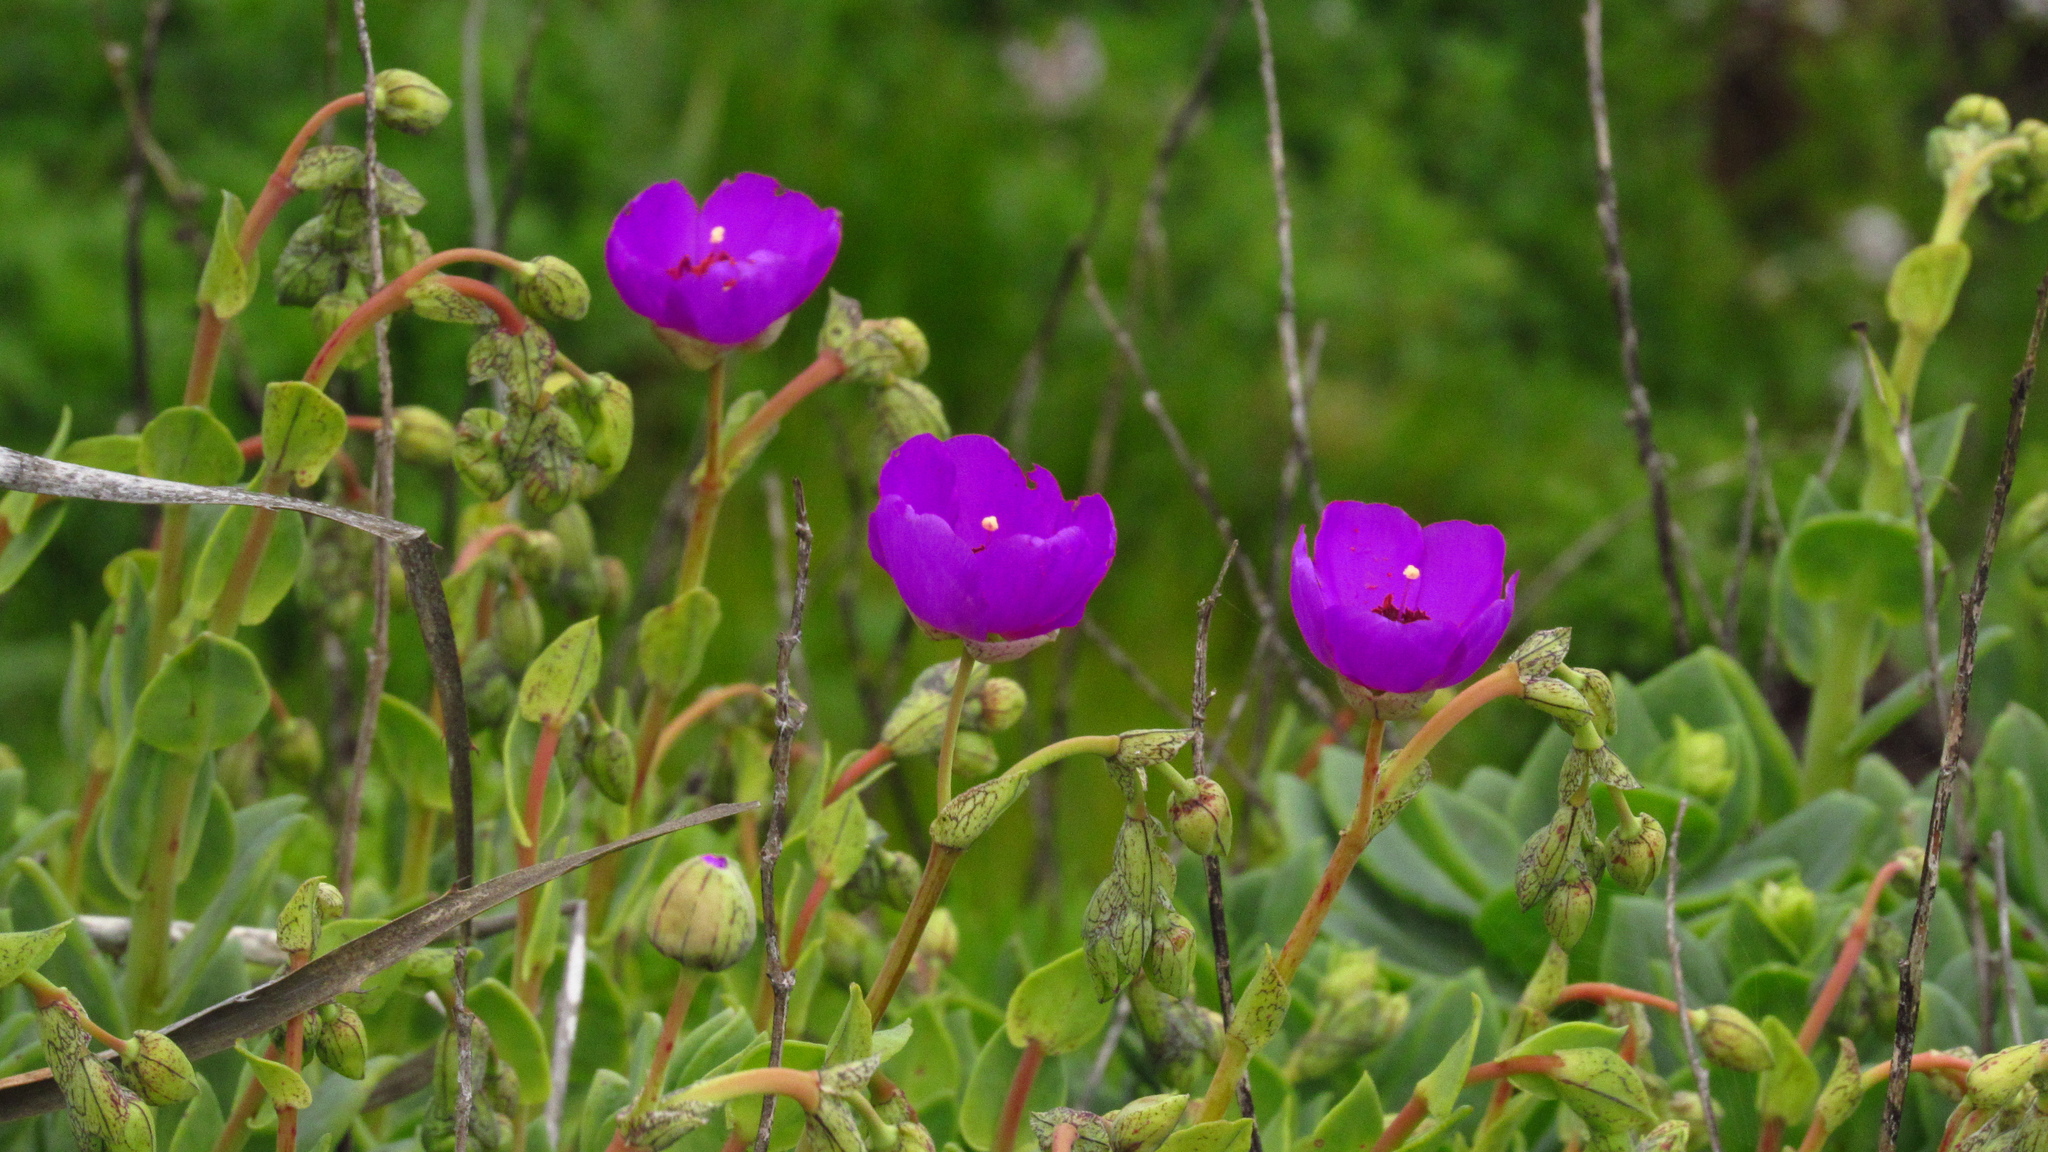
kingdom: Plantae
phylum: Tracheophyta
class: Magnoliopsida
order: Caryophyllales
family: Montiaceae
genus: Cistanthe
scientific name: Cistanthe grandiflora
